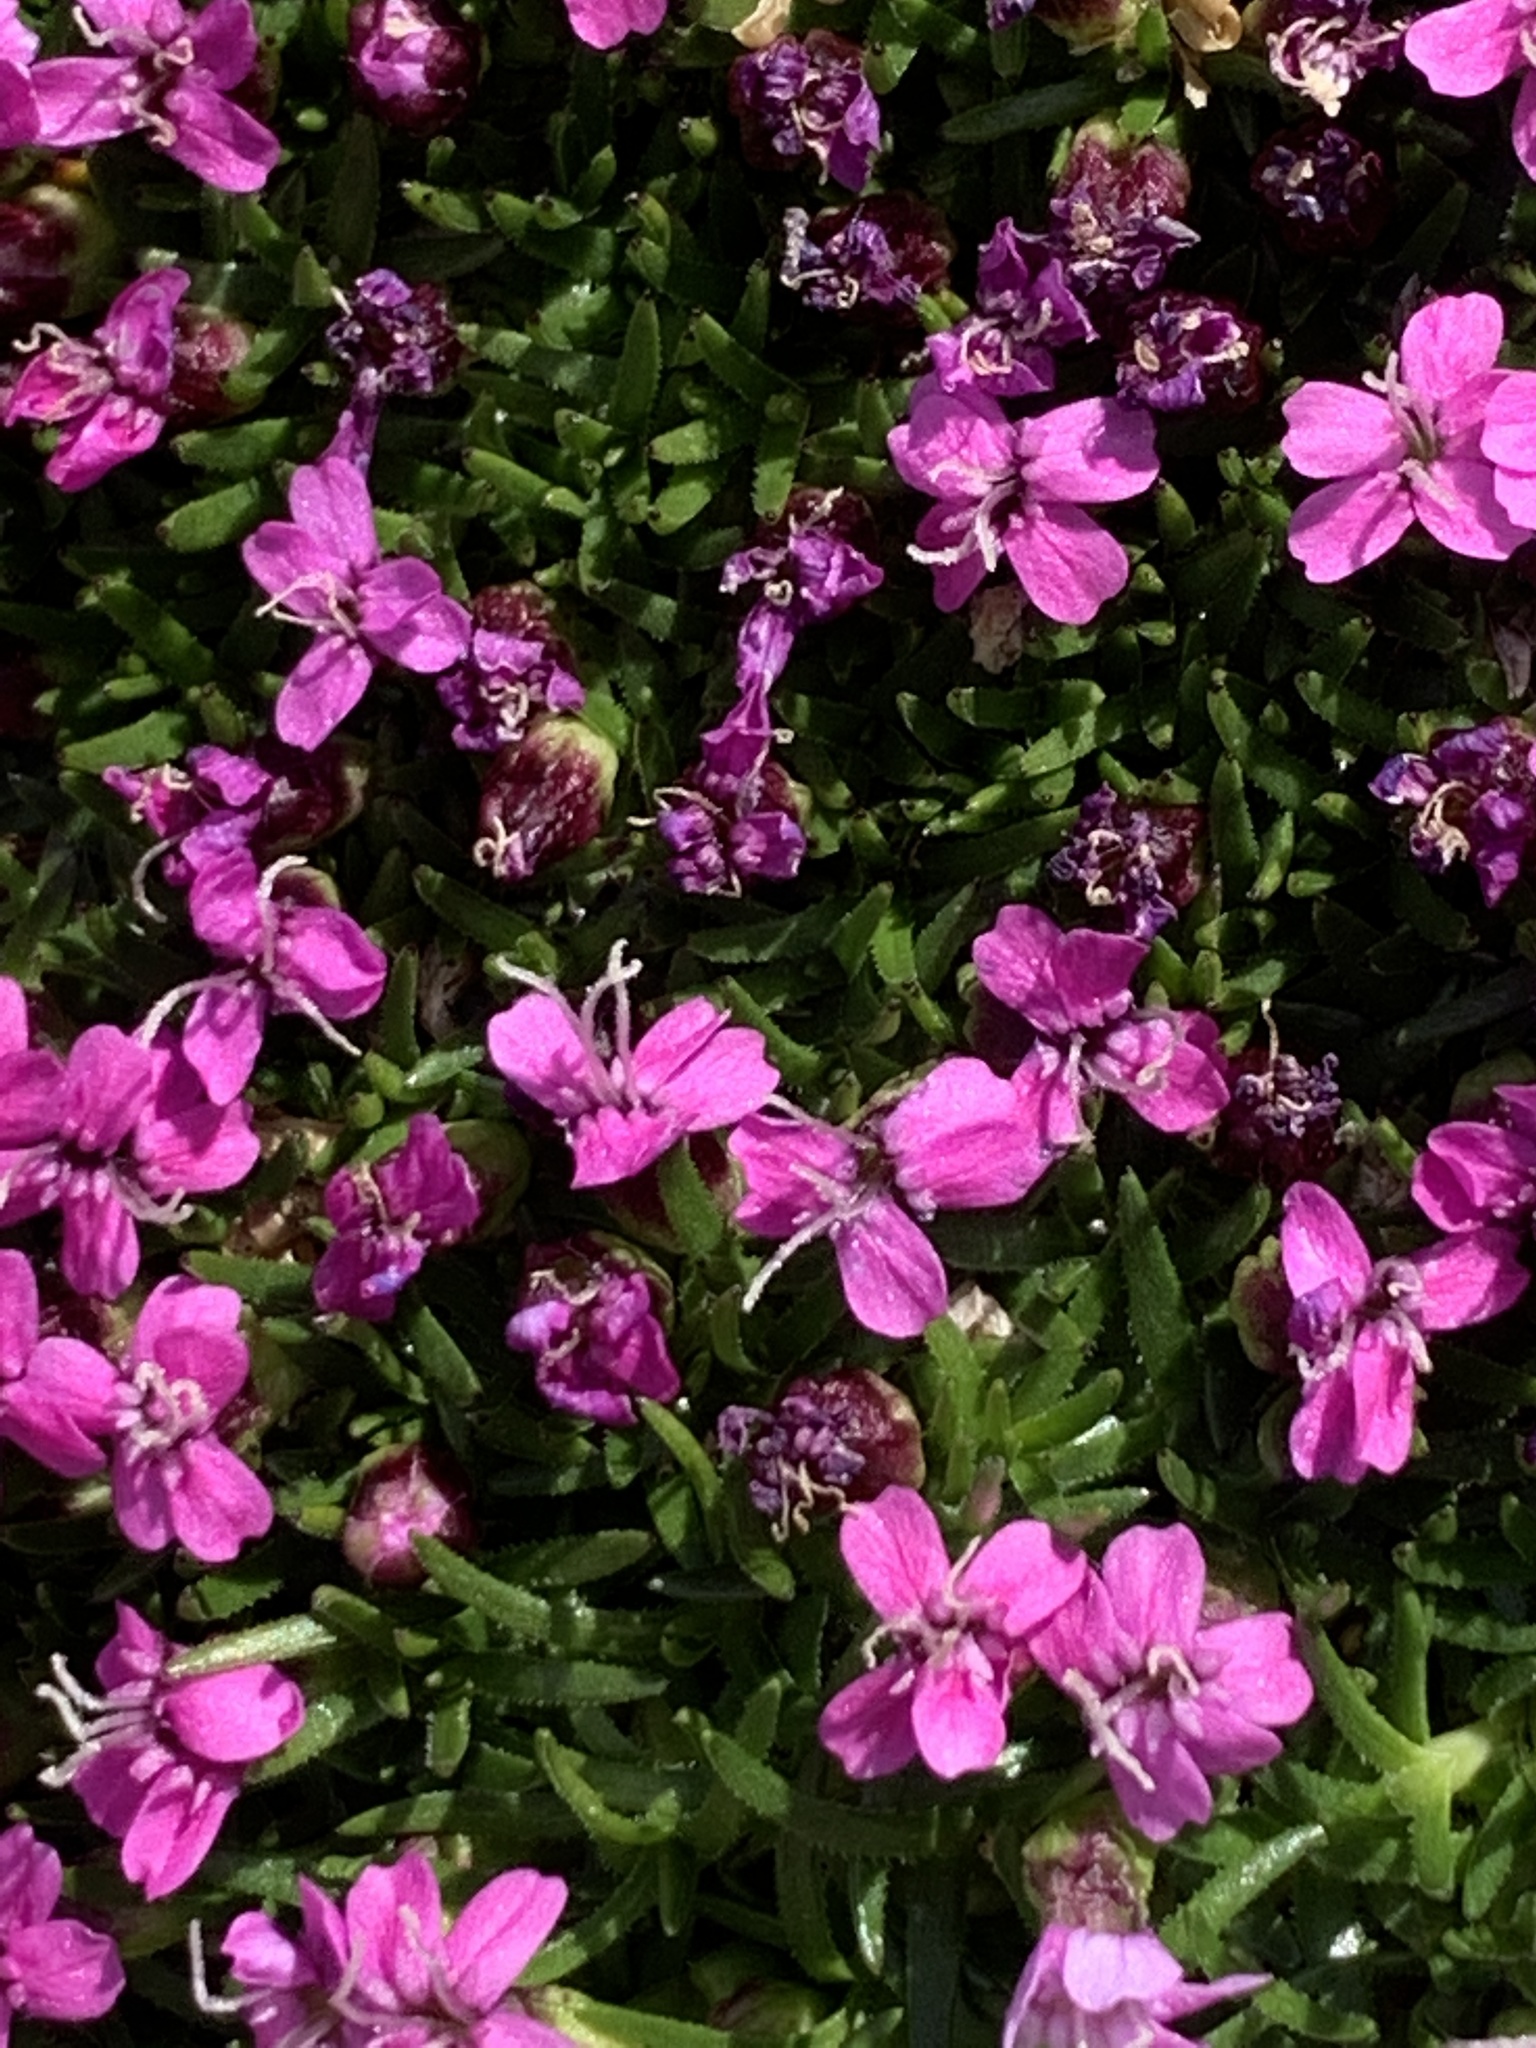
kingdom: Plantae
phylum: Tracheophyta
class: Magnoliopsida
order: Caryophyllales
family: Caryophyllaceae
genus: Silene
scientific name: Silene acaulis
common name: Moss campion
